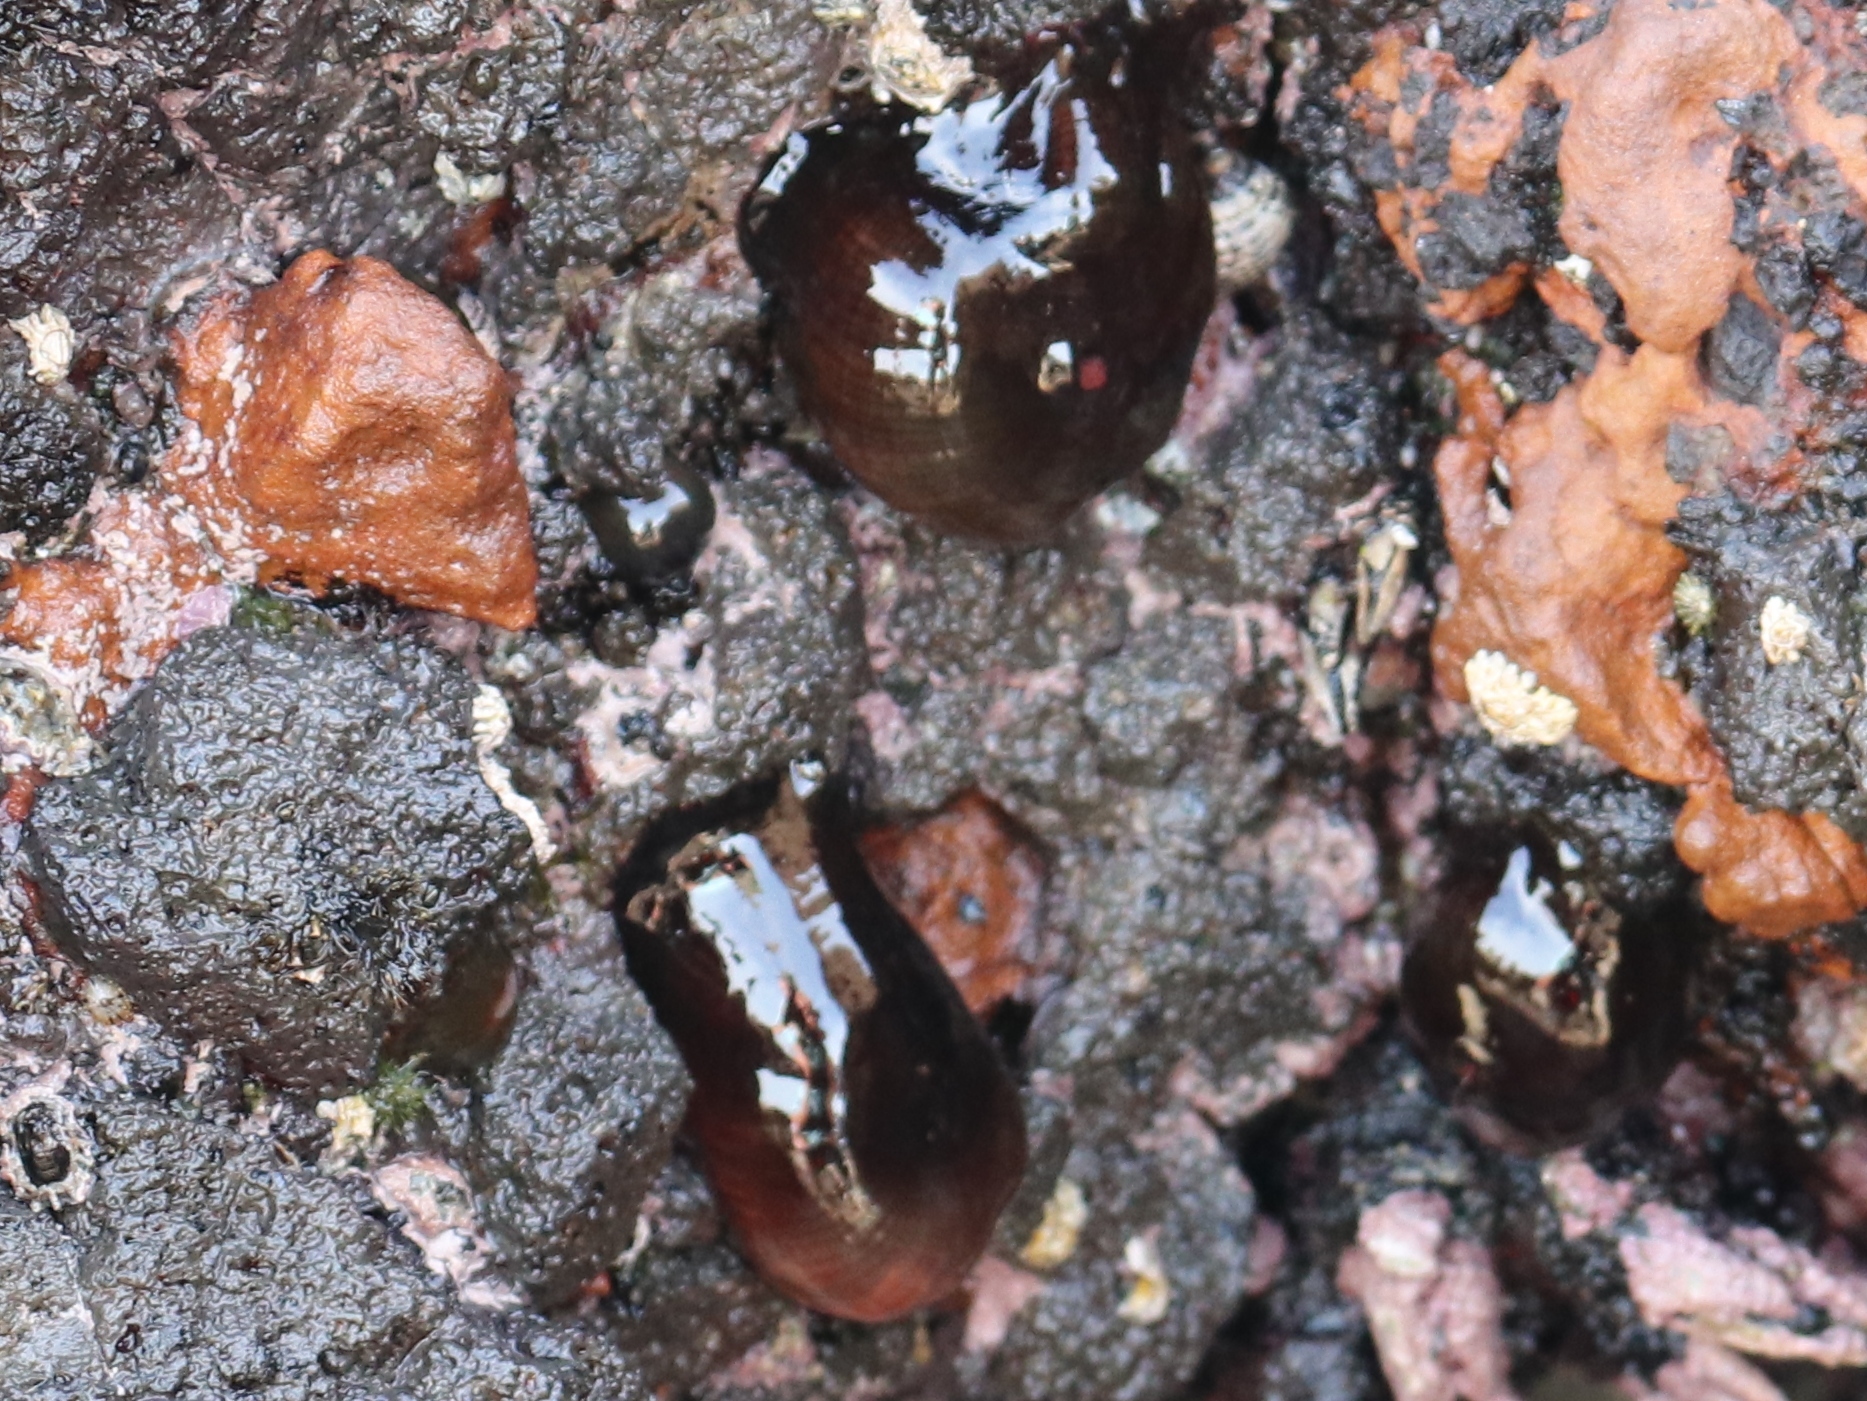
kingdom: Animalia
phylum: Cnidaria
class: Anthozoa
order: Actiniaria
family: Actiniidae
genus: Actinia
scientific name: Actinia tenebrosa
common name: Waratah anemone
